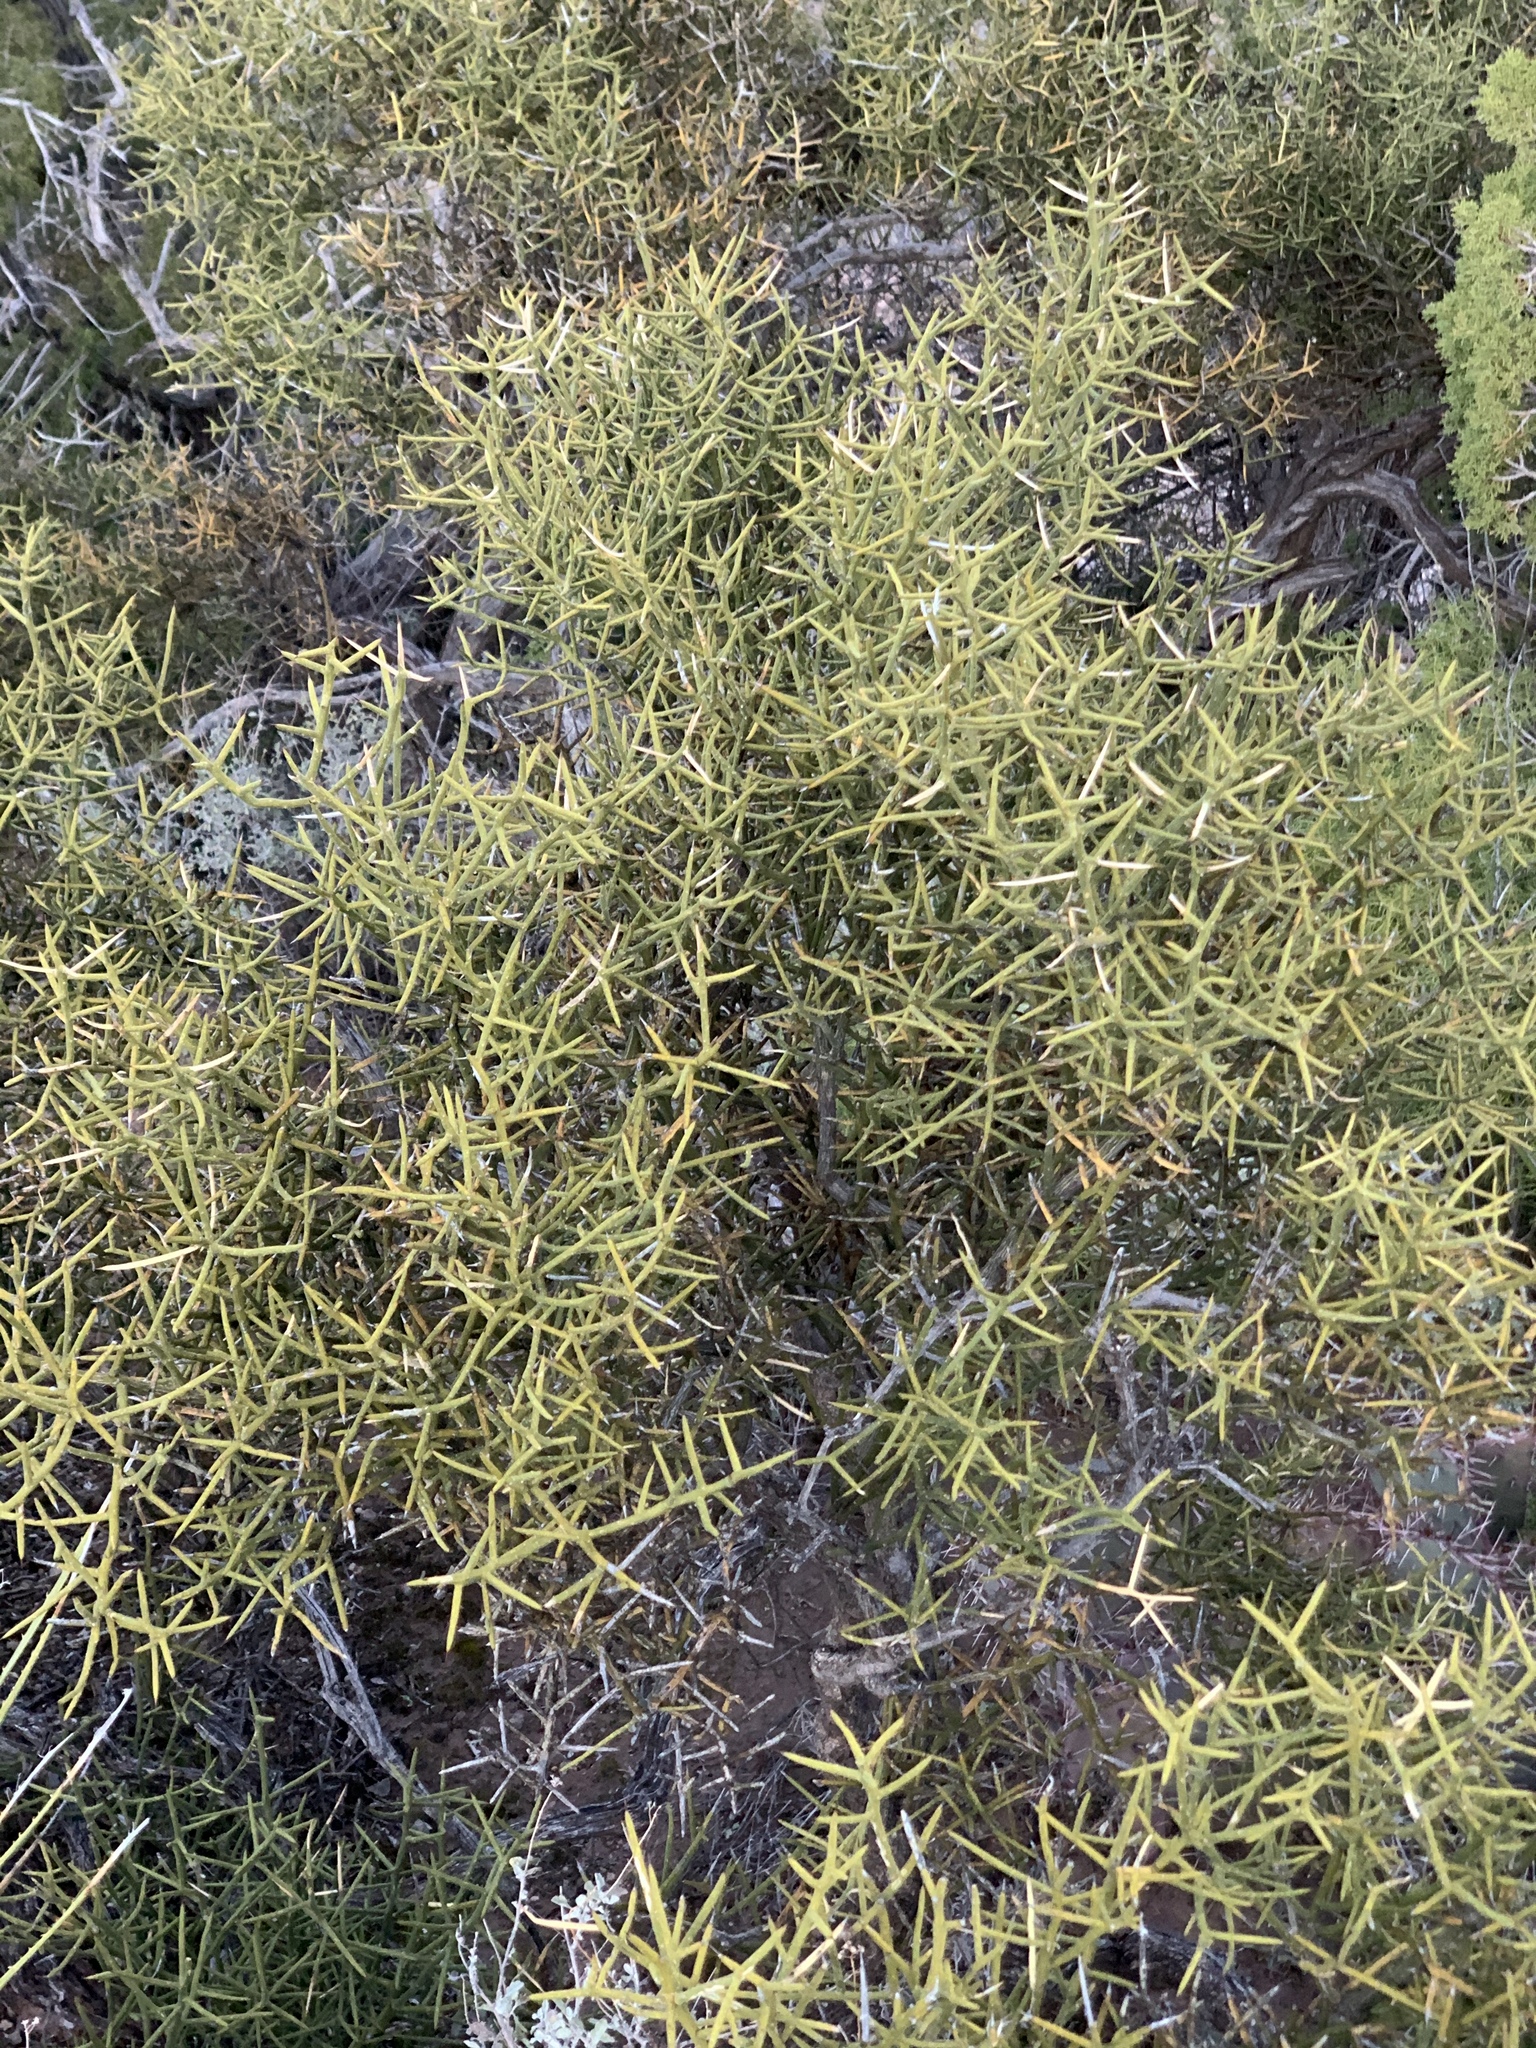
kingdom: Plantae
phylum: Tracheophyta
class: Magnoliopsida
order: Brassicales
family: Koeberliniaceae
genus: Koeberlinia
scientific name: Koeberlinia spinosa
